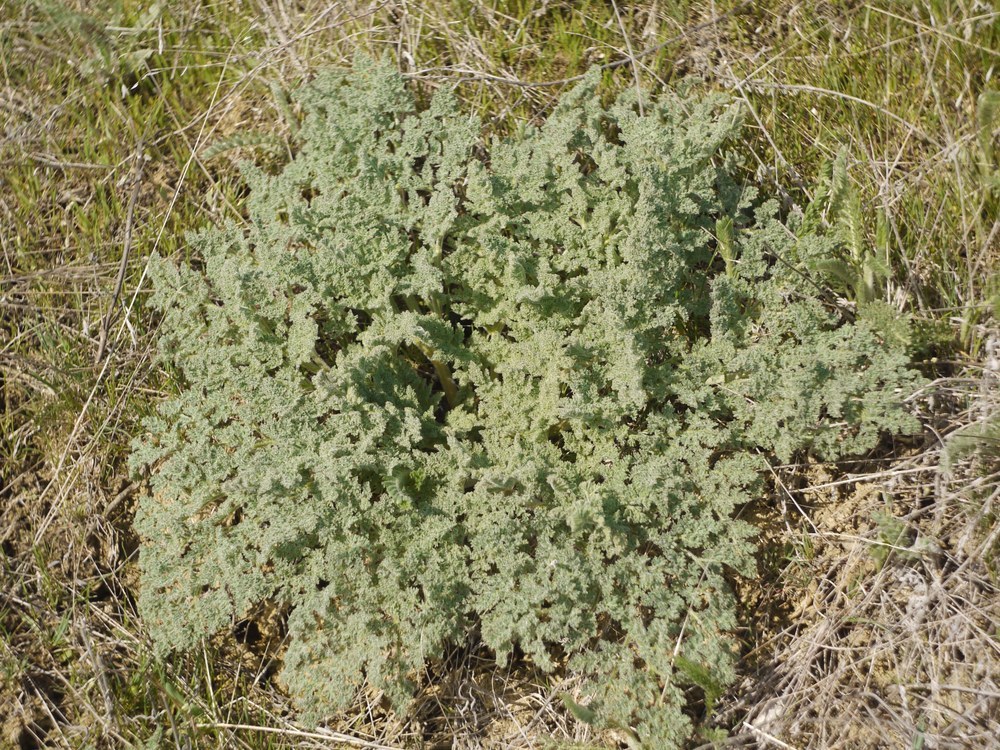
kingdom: Plantae
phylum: Tracheophyta
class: Magnoliopsida
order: Apiales
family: Apiaceae
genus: Ferula
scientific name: Ferula caspica
